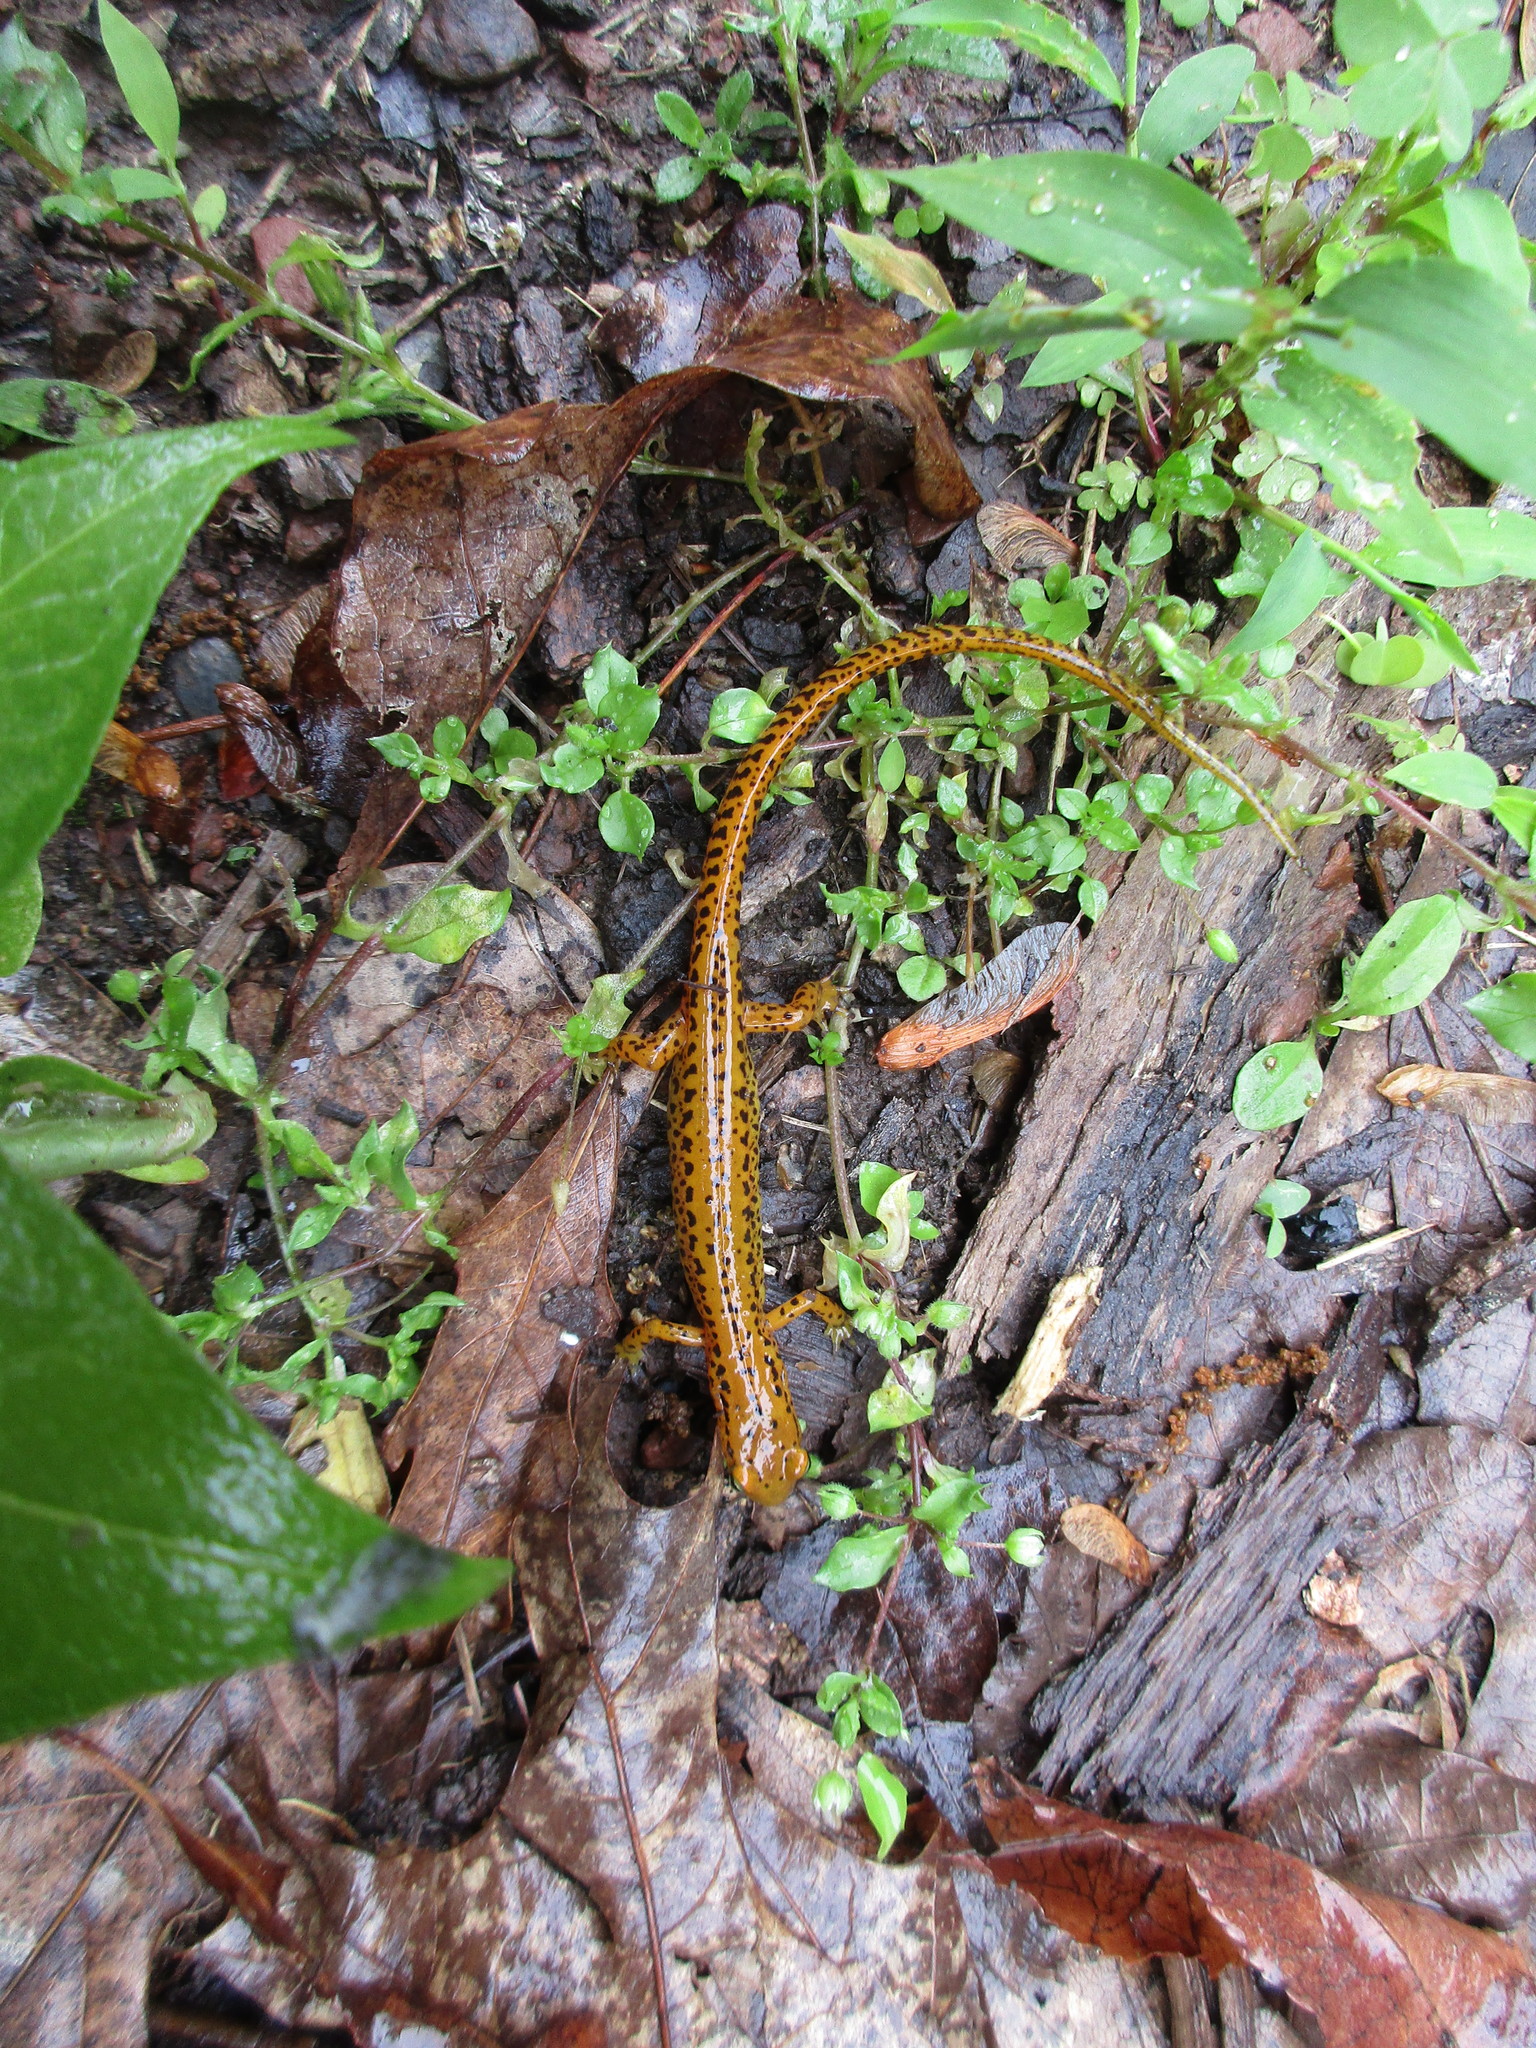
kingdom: Animalia
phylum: Chordata
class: Amphibia
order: Caudata
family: Plethodontidae
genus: Eurycea
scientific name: Eurycea longicauda
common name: Long-tailed salamander
